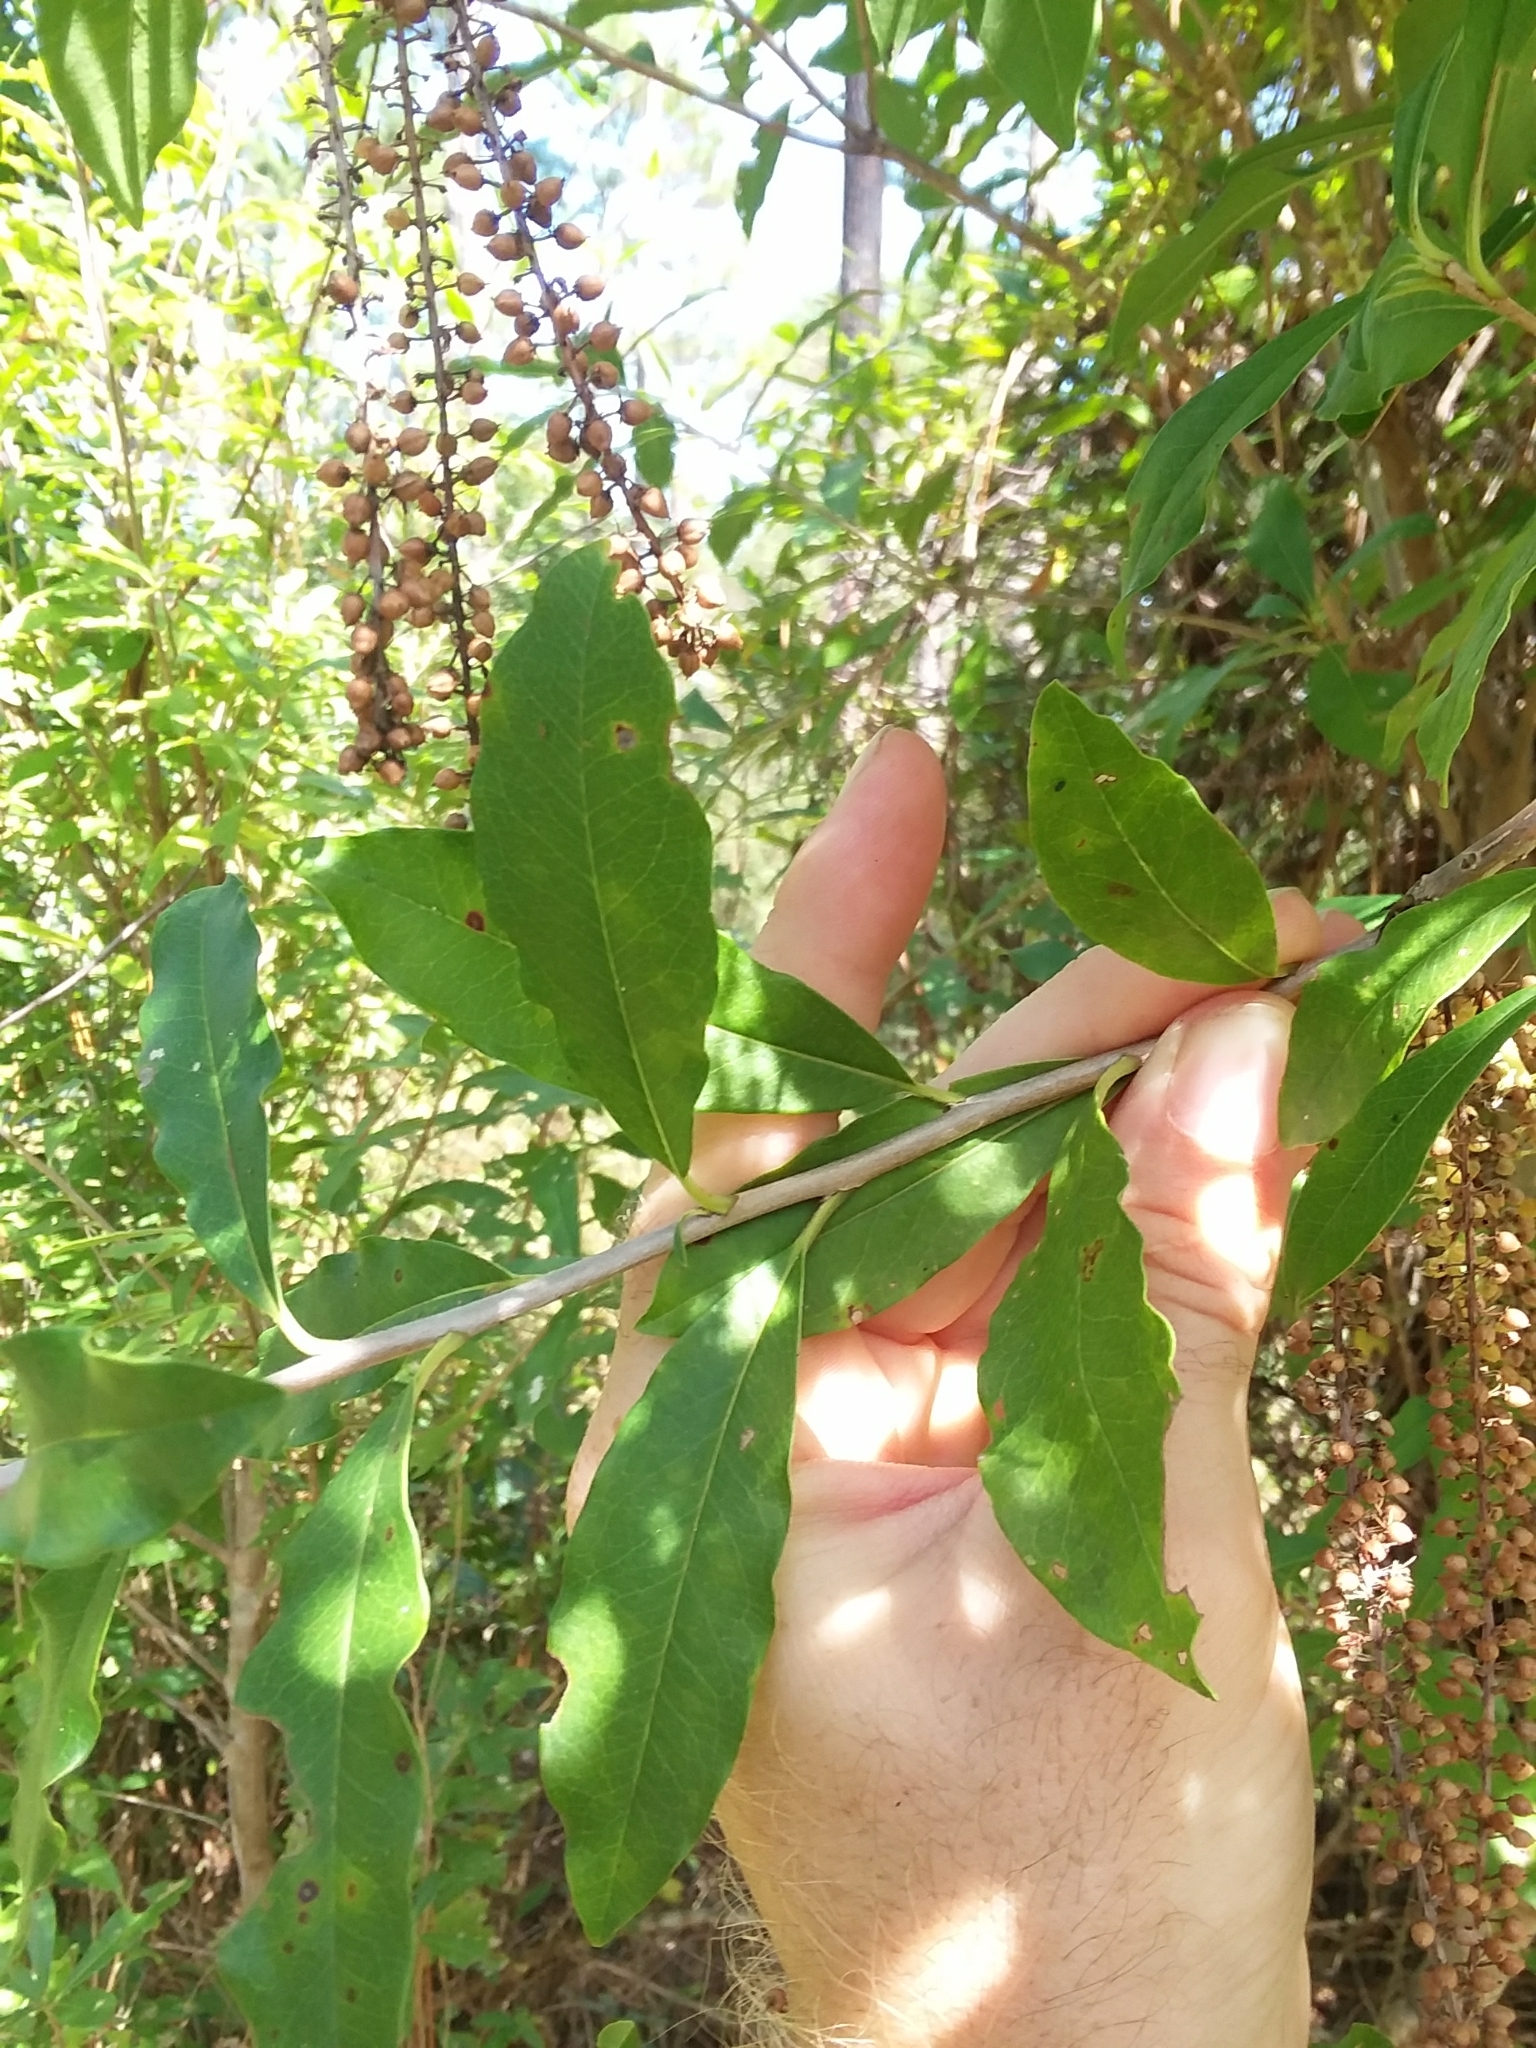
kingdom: Plantae
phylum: Tracheophyta
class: Magnoliopsida
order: Ericales
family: Cyrillaceae
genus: Cyrilla
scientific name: Cyrilla racemiflora
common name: Black titi
